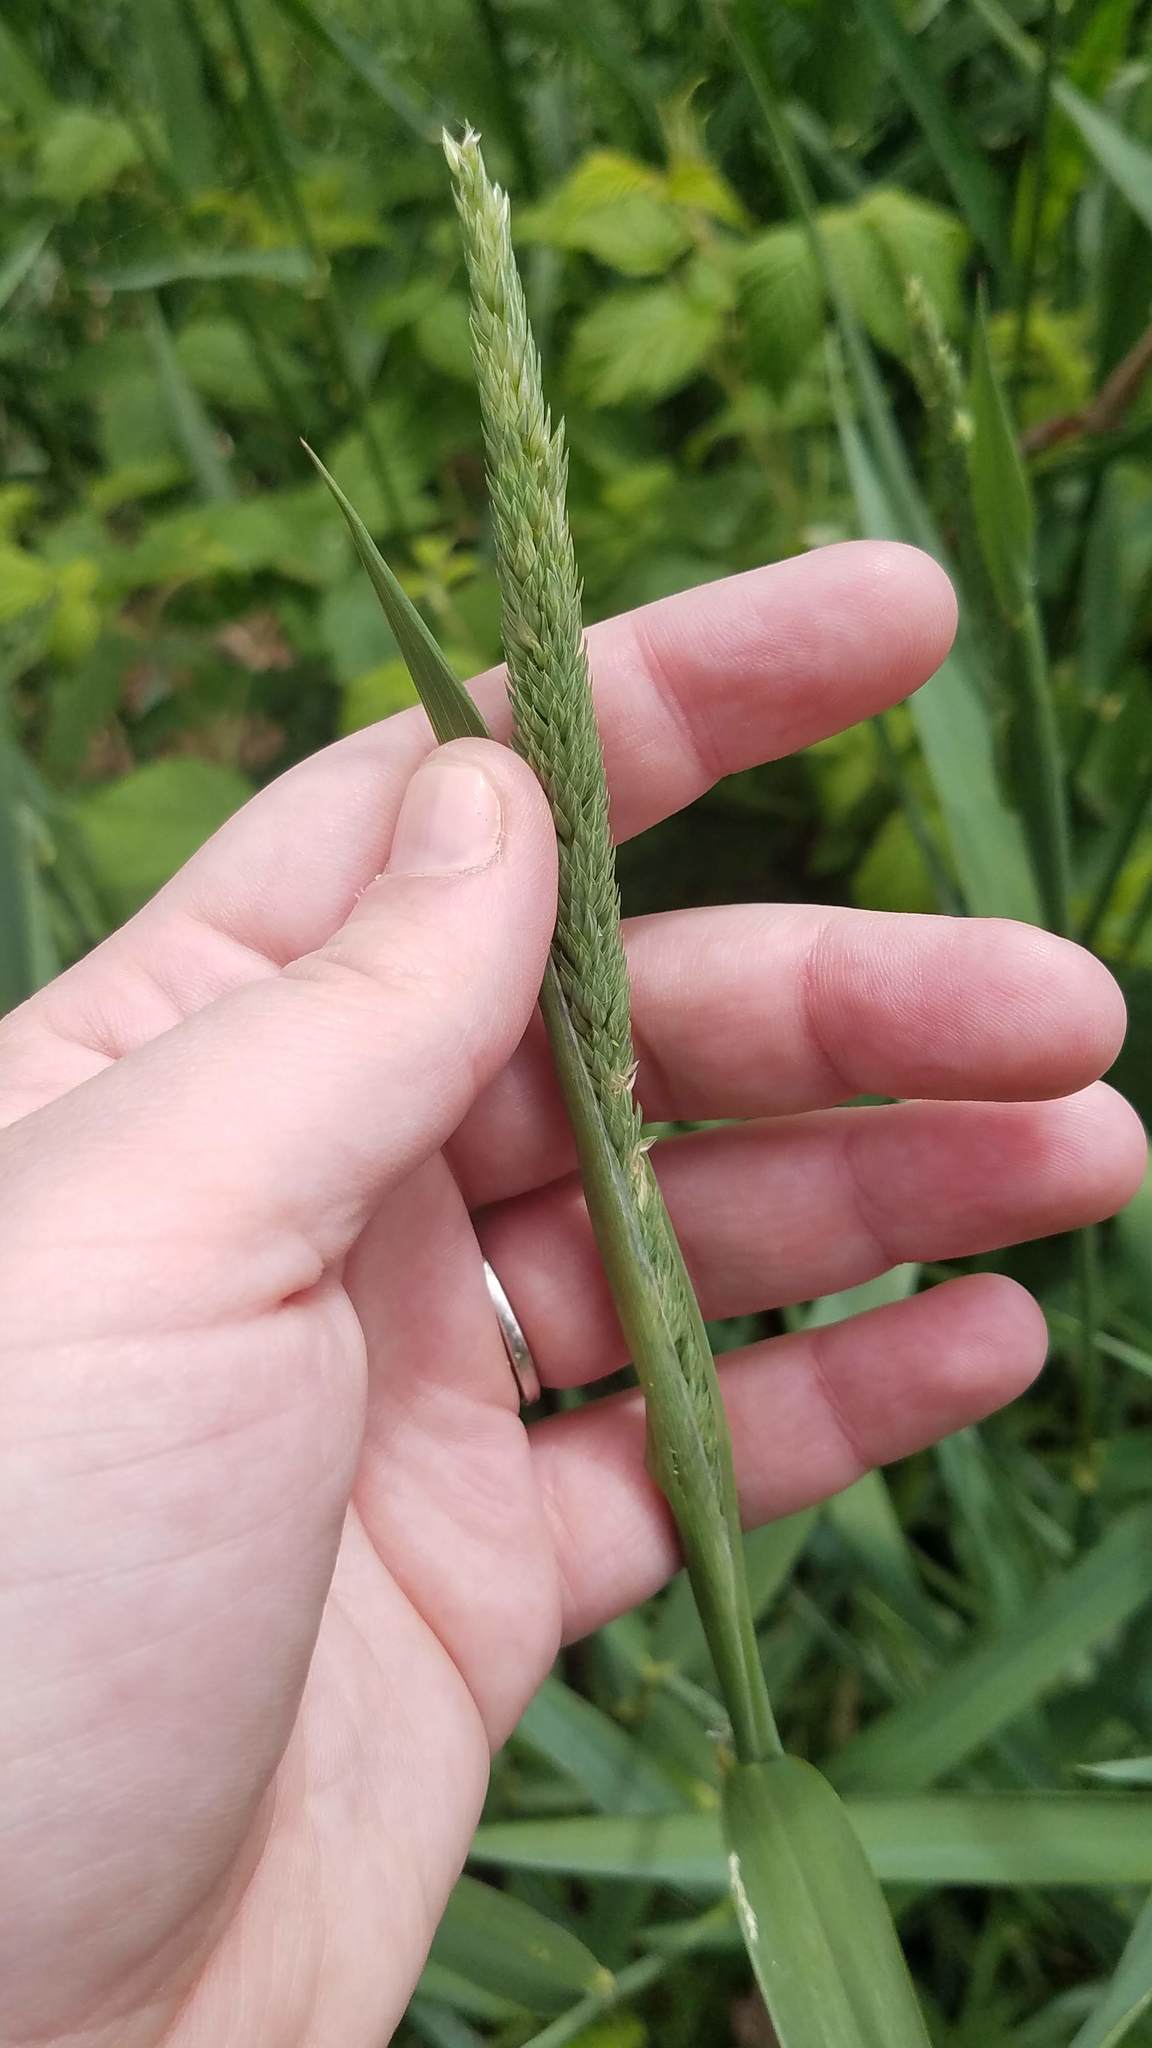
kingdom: Plantae
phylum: Tracheophyta
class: Liliopsida
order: Poales
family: Poaceae
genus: Phalaris
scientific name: Phalaris arundinacea
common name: Reed canary-grass
